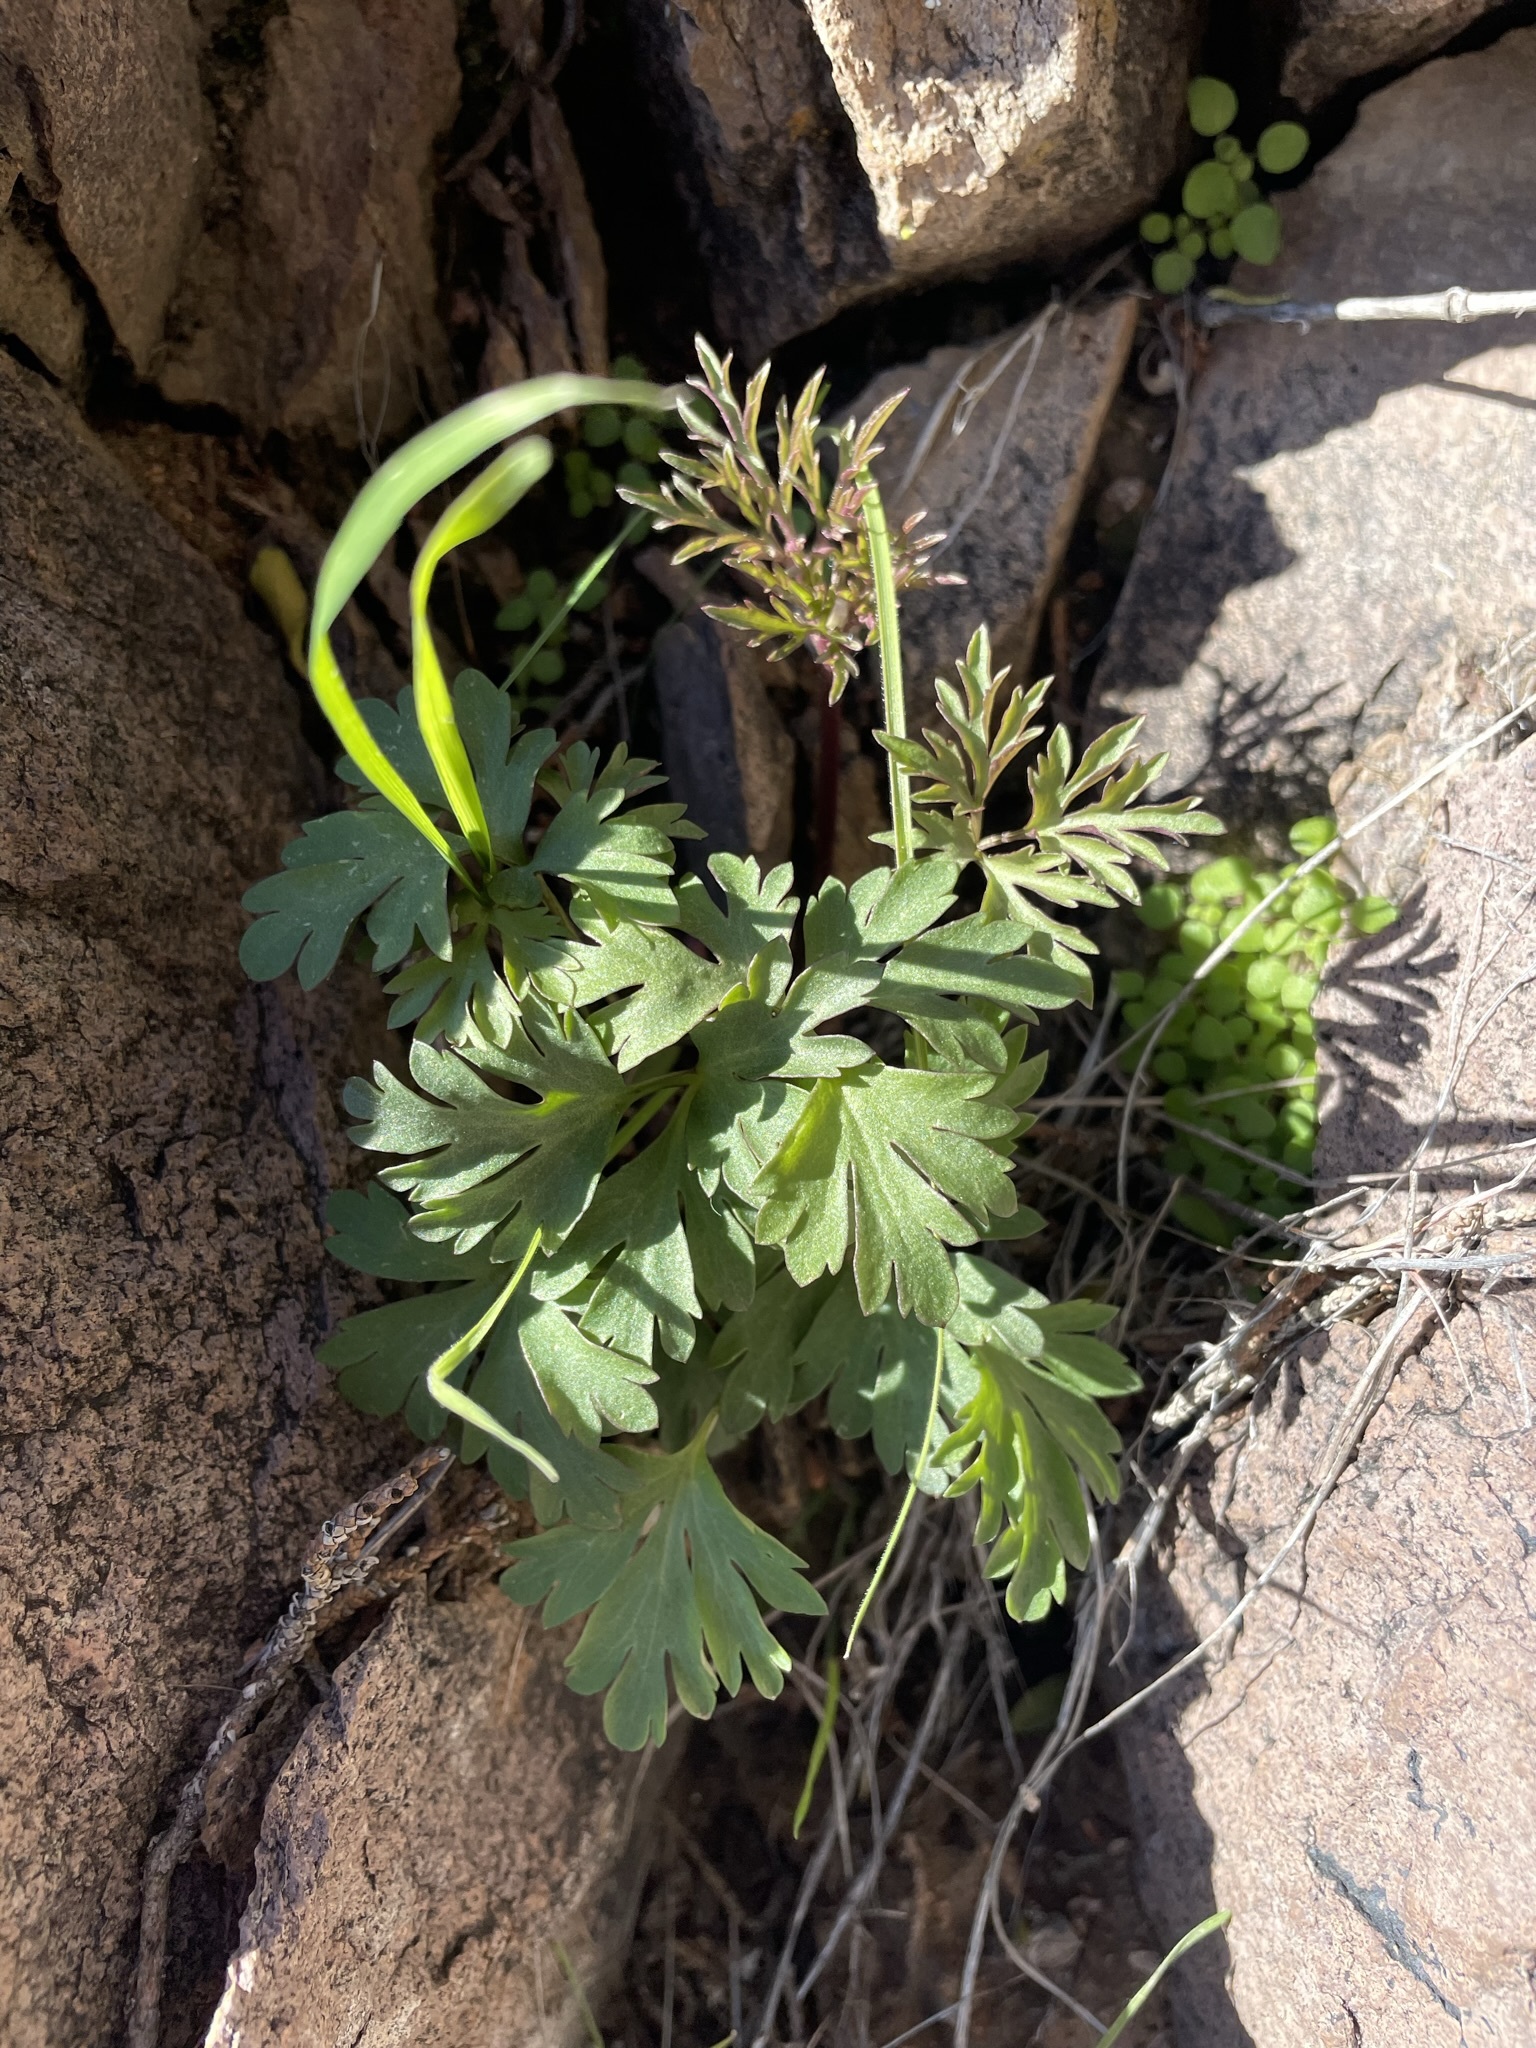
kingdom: Plantae
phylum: Tracheophyta
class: Magnoliopsida
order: Ranunculales
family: Ranunculaceae
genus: Anemone
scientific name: Anemone tuberosa
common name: Desert anemone
